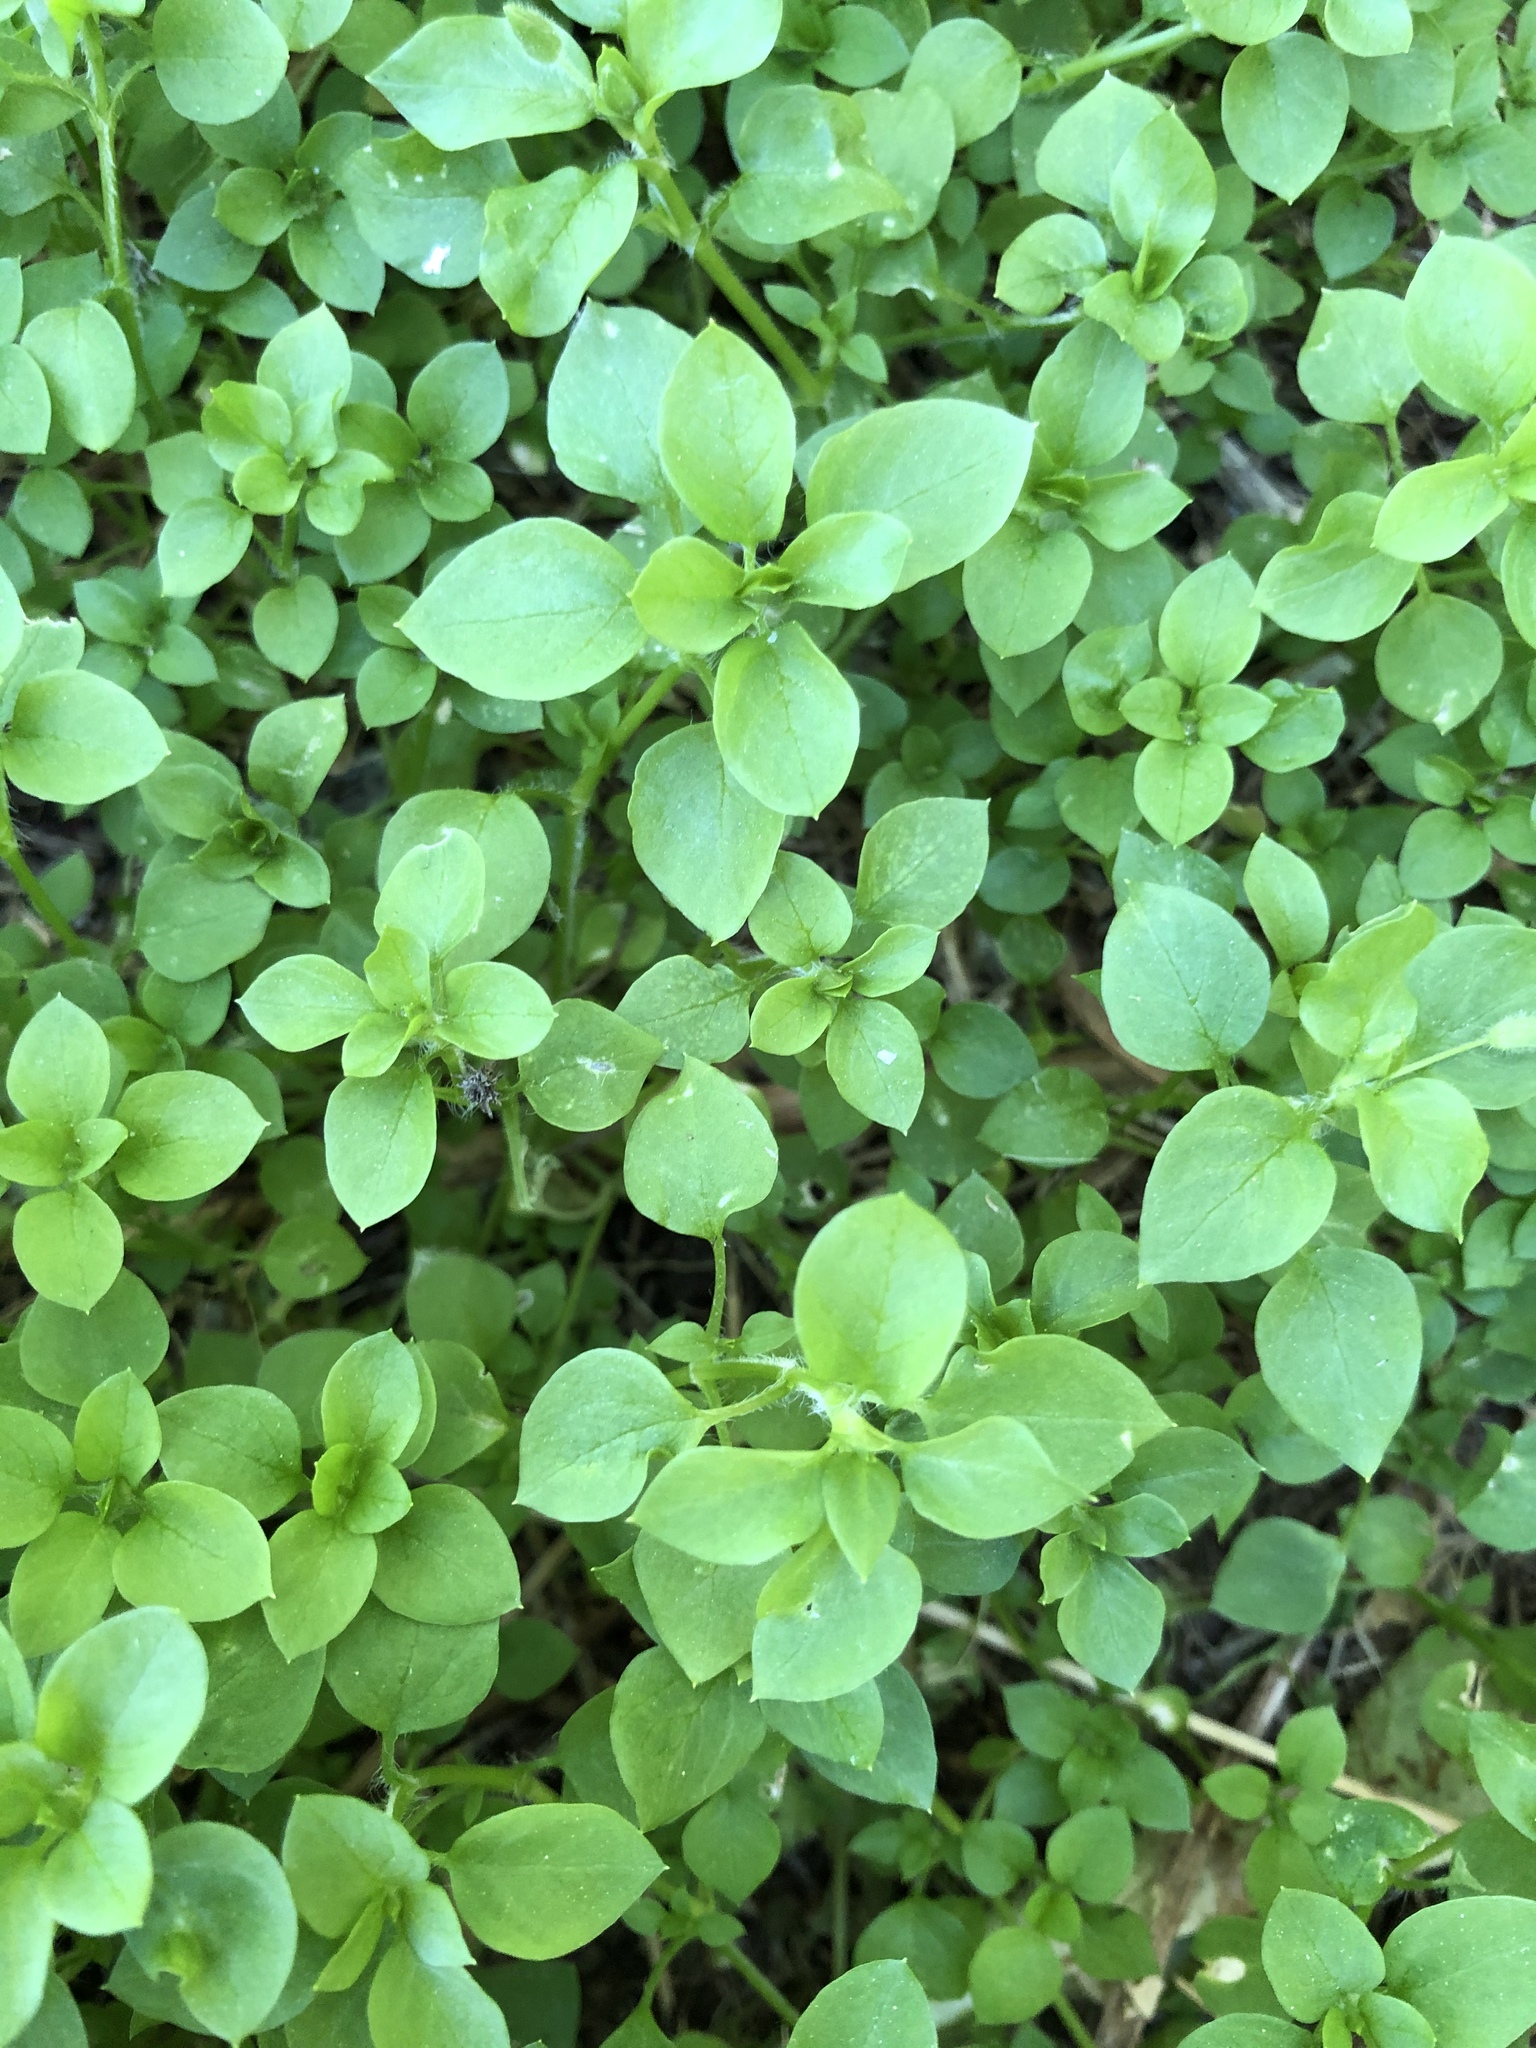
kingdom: Plantae
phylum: Tracheophyta
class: Magnoliopsida
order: Caryophyllales
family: Caryophyllaceae
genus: Stellaria
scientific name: Stellaria media
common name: Common chickweed
